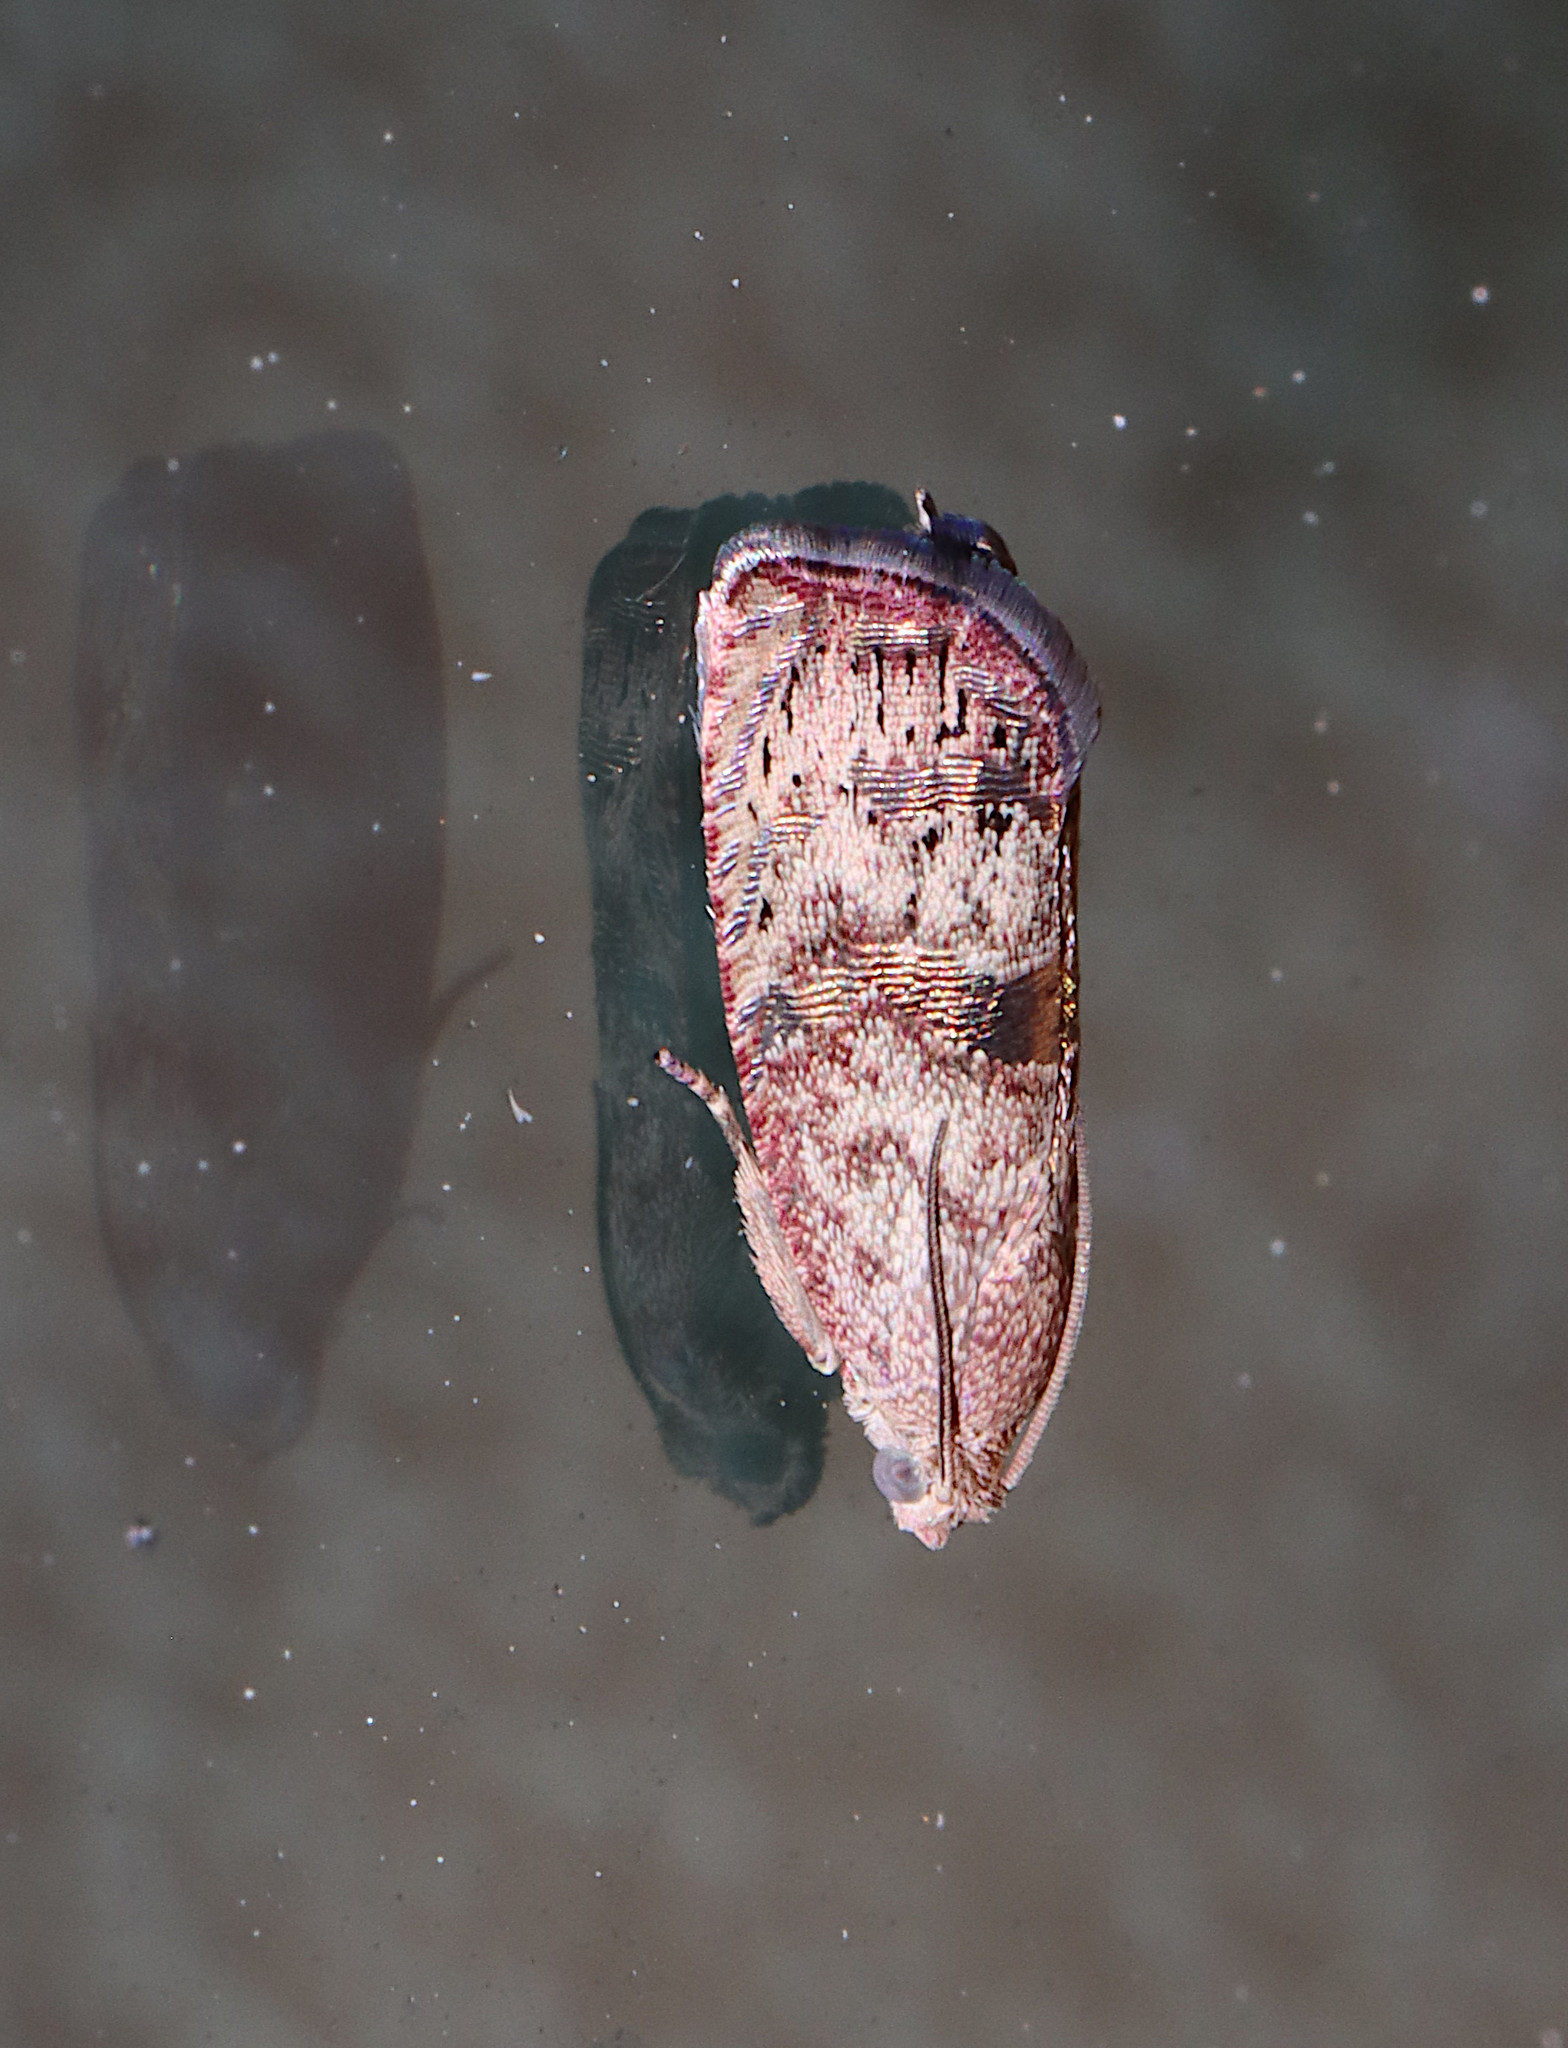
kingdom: Animalia
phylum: Arthropoda
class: Insecta
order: Lepidoptera
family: Tortricidae
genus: Cydia
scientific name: Cydia latiferreana
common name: Filbertworm moth
